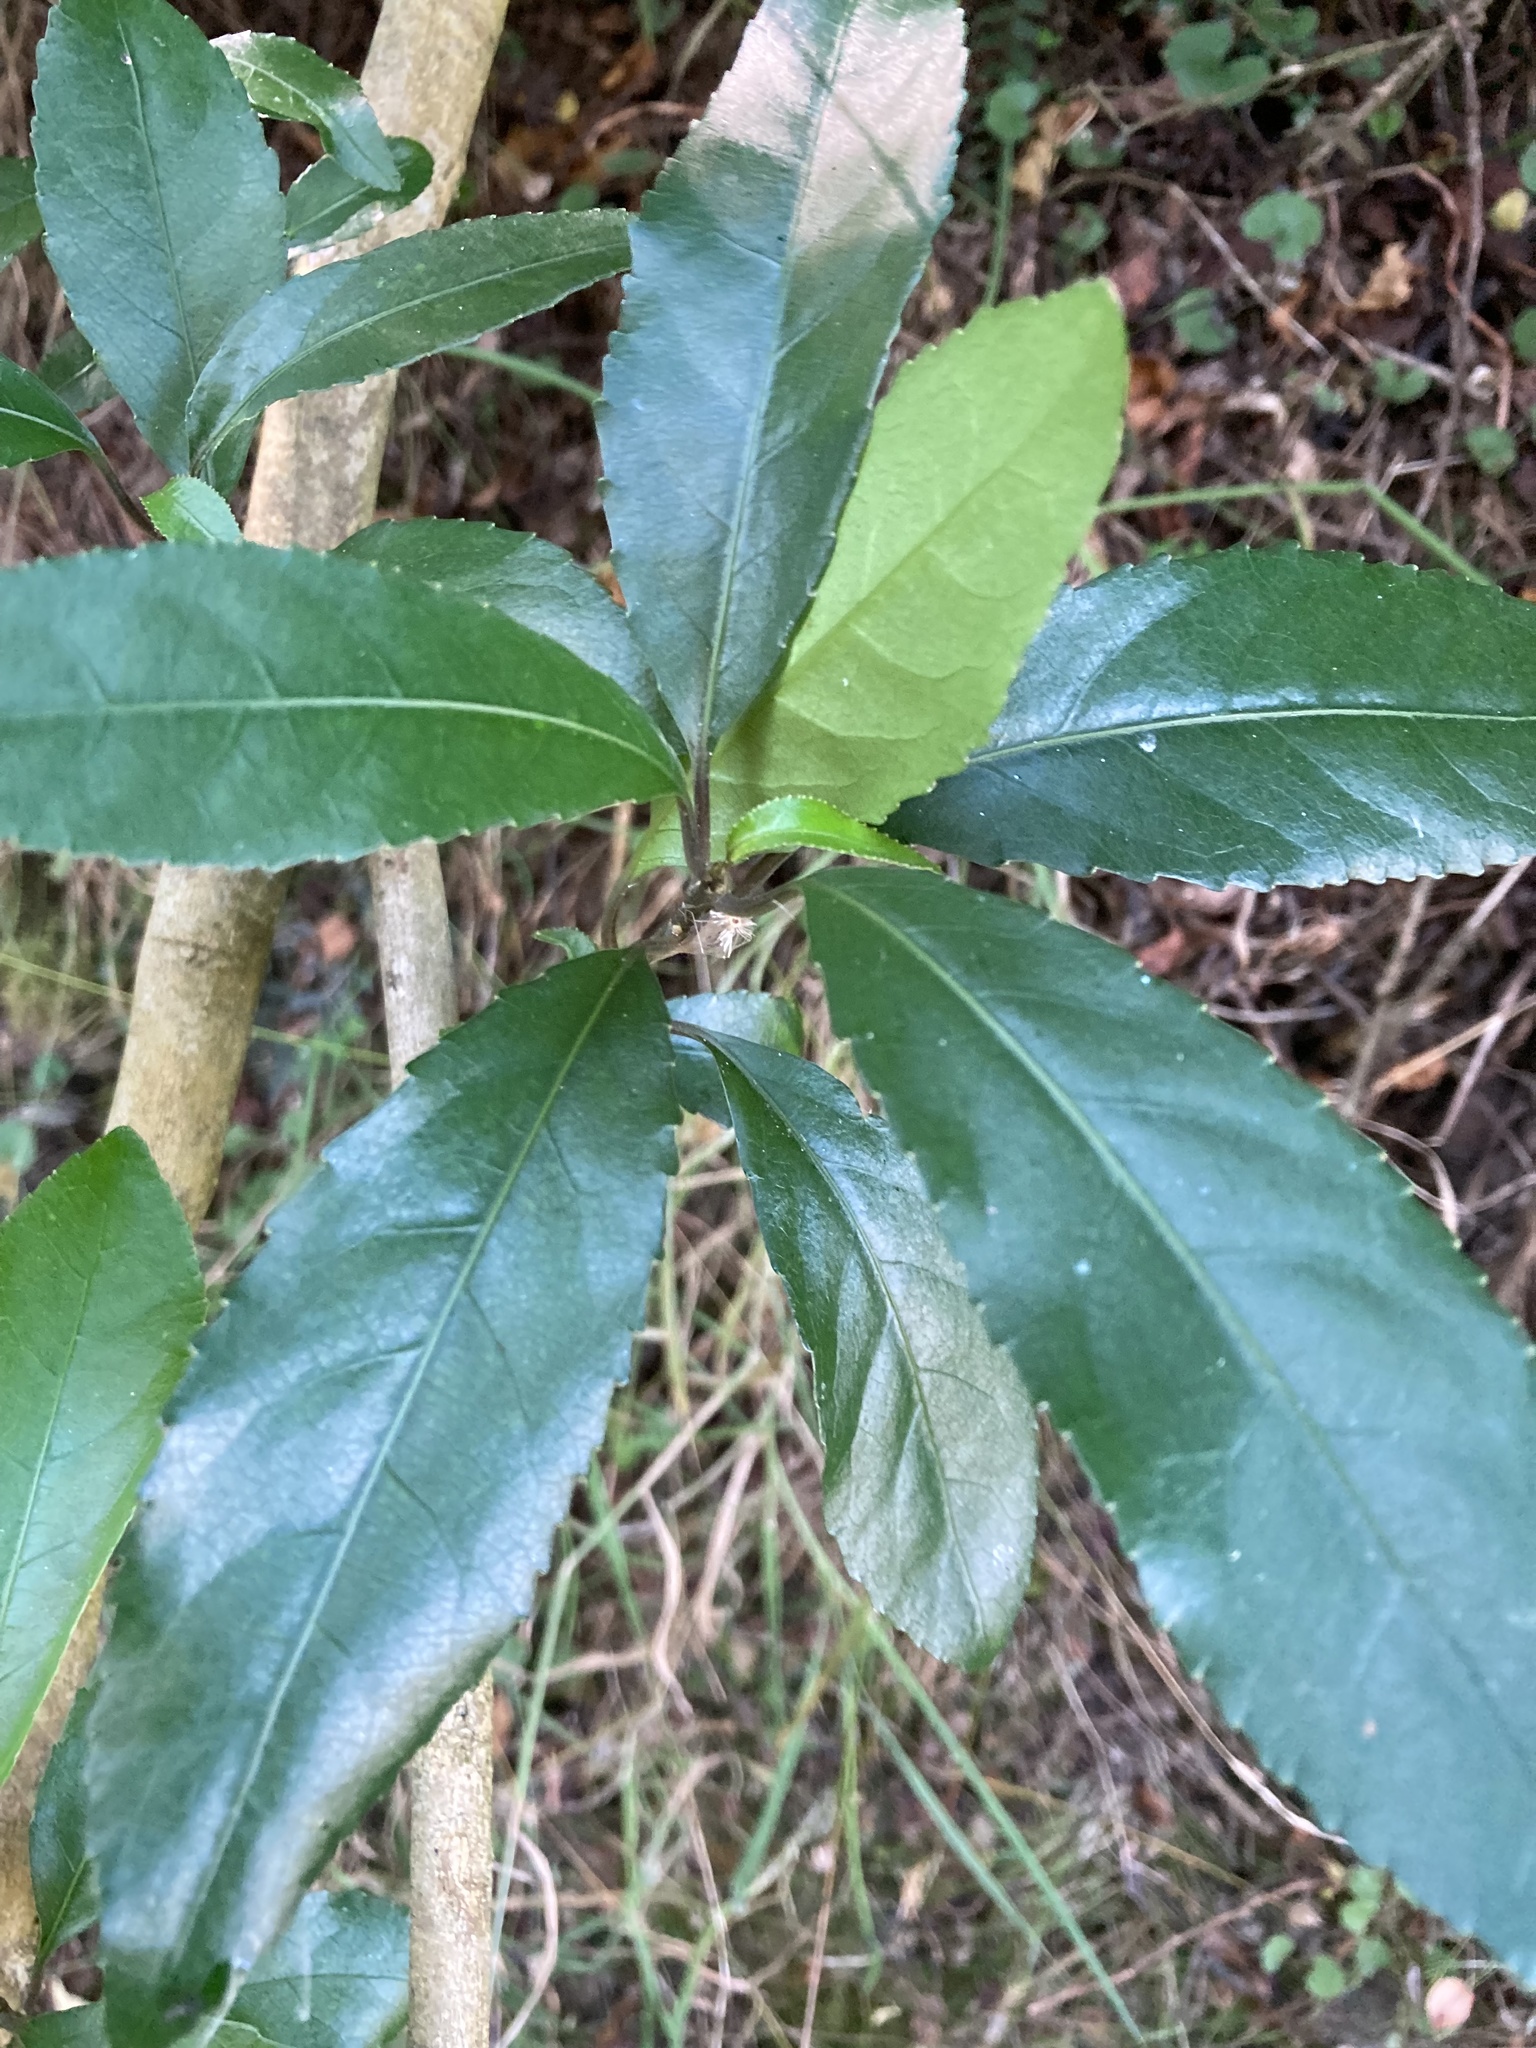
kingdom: Plantae
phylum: Tracheophyta
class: Magnoliopsida
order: Malpighiales
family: Violaceae
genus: Melicytus
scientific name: Melicytus ramiflorus
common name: Mahoe
